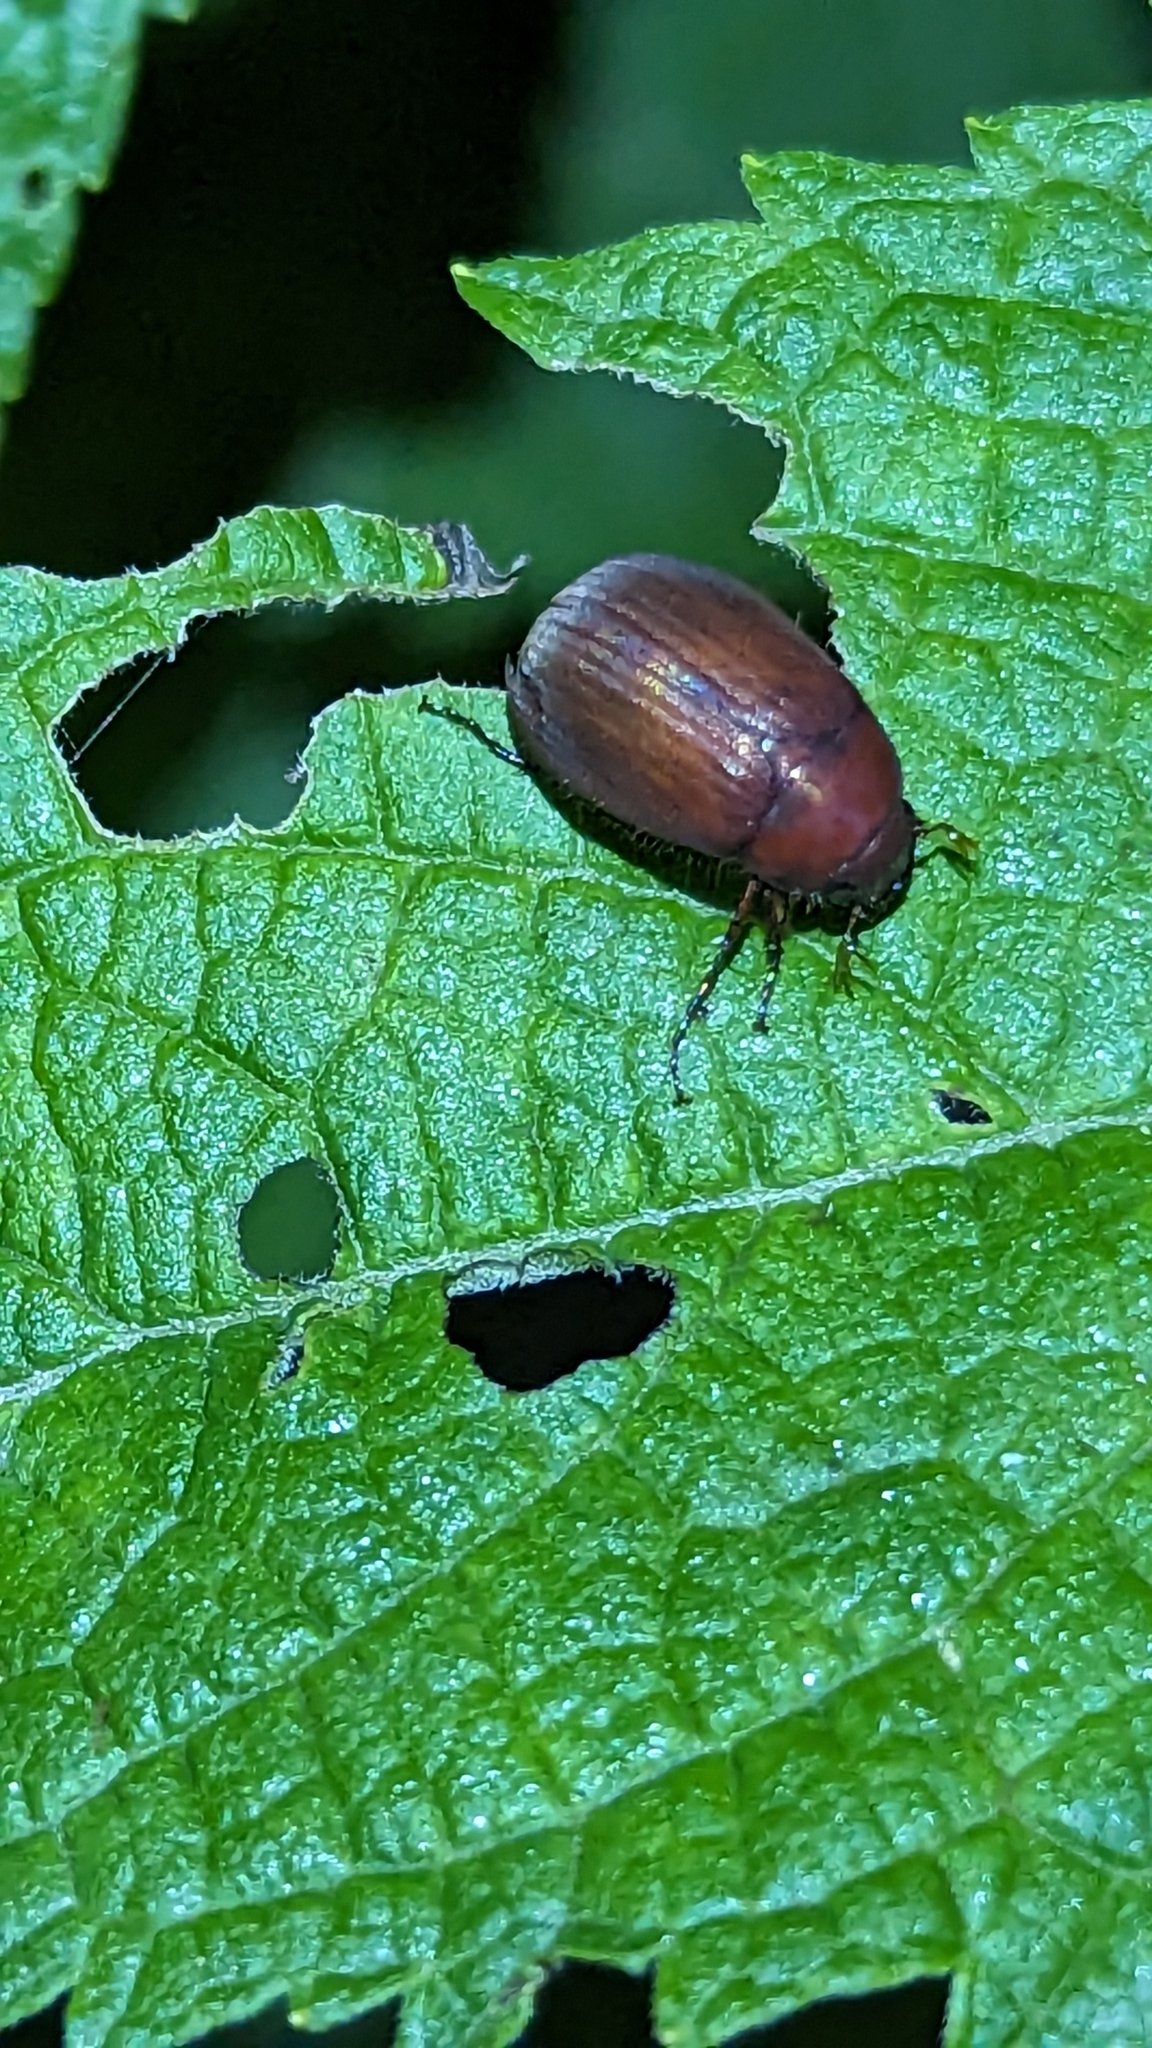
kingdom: Animalia
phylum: Arthropoda
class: Insecta
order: Coleoptera
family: Scarabaeidae
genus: Maladera
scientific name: Maladera formosae
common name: Asiatic garden beetle
